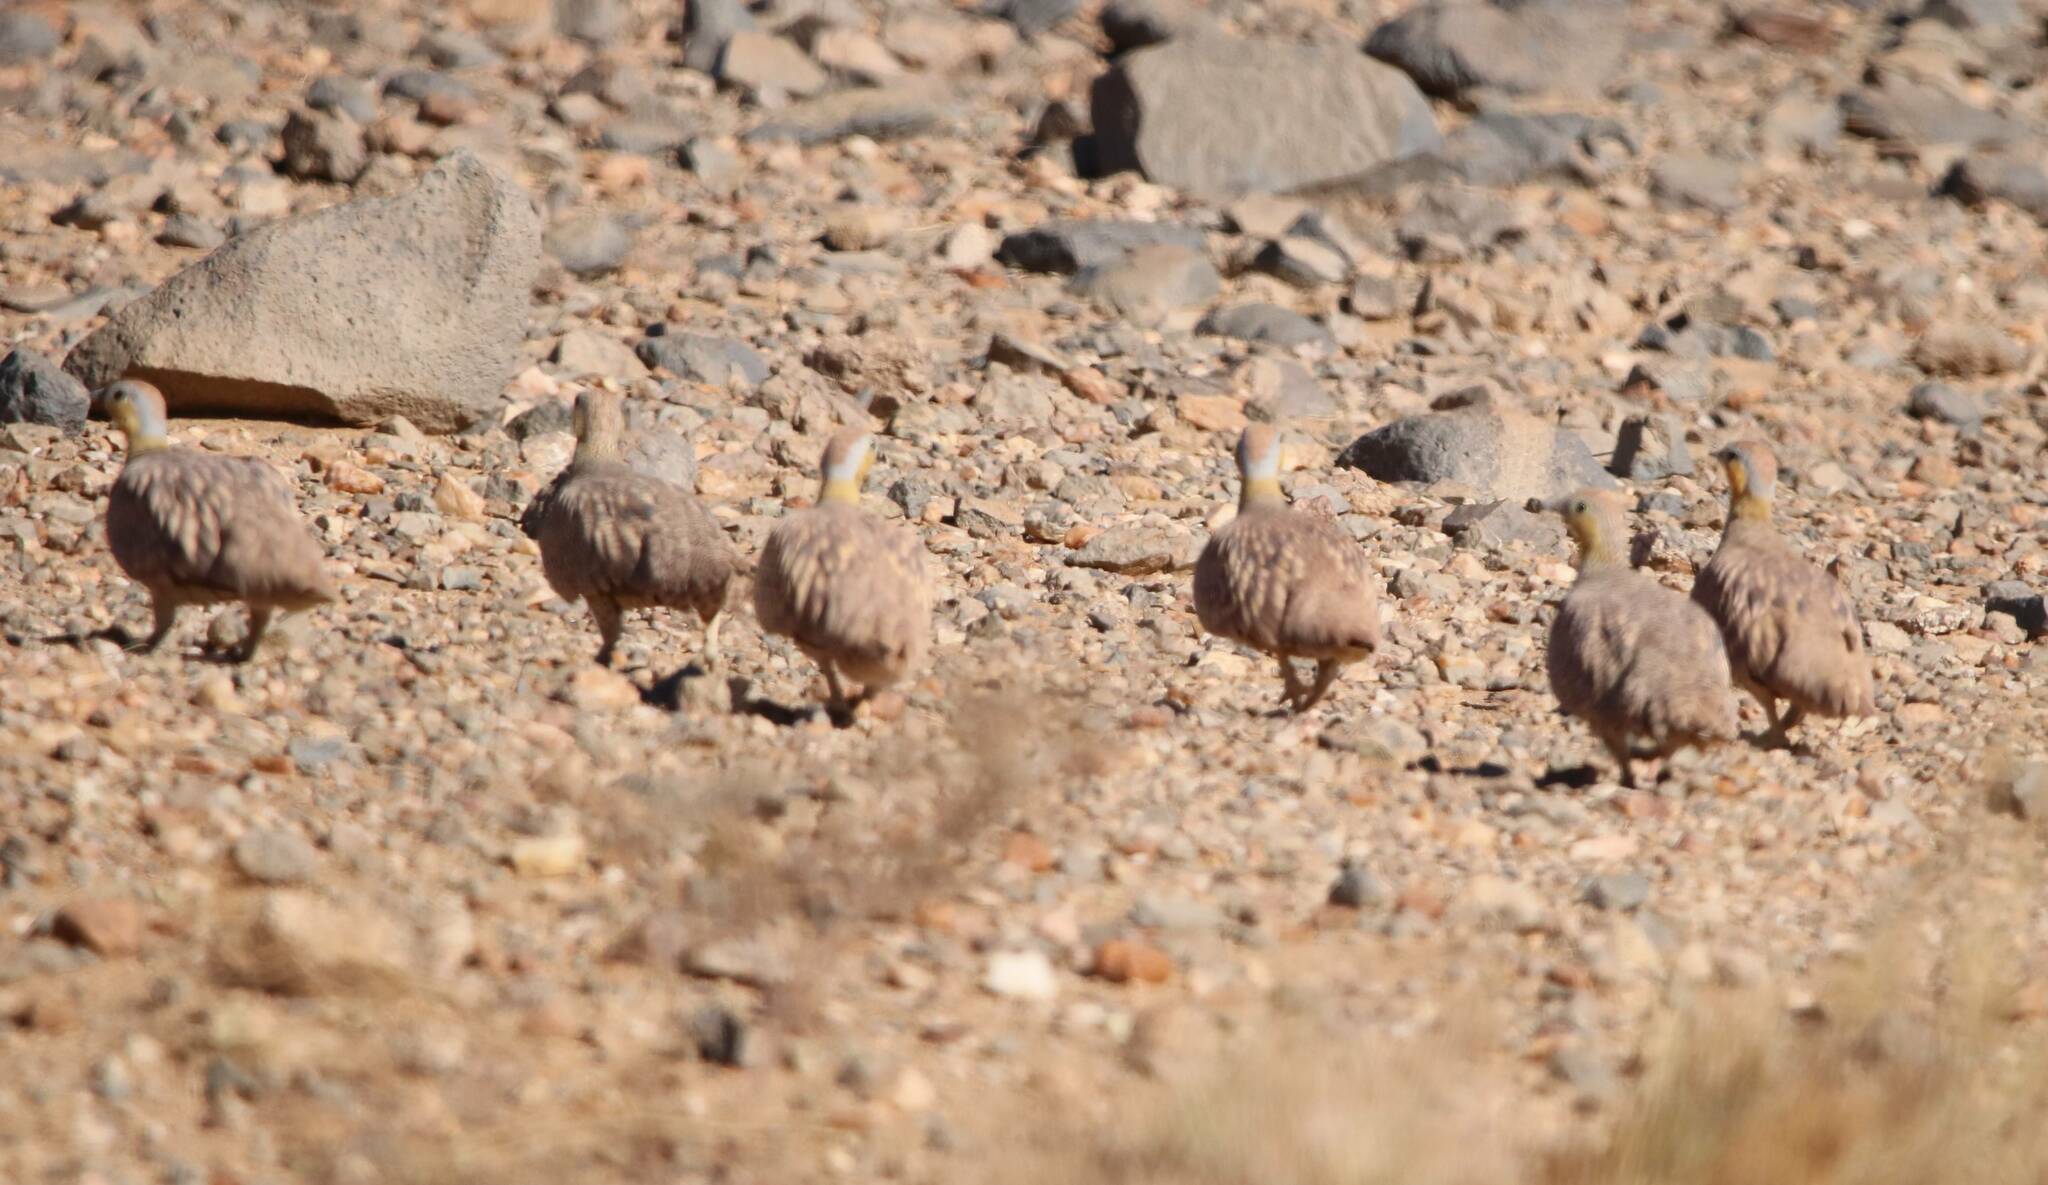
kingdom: Animalia
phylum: Chordata
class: Aves
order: Pteroclidiformes
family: Pteroclididae
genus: Pterocles
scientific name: Pterocles coronatus
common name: Crowned sandgrouse
